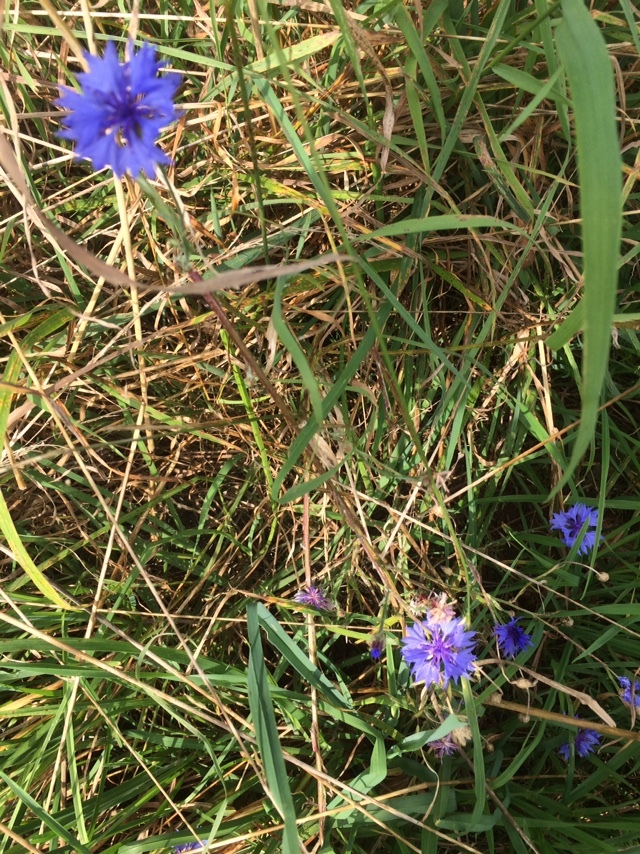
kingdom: Plantae
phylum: Tracheophyta
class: Magnoliopsida
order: Asterales
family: Asteraceae
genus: Centaurea
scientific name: Centaurea cyanus
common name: Cornflower
